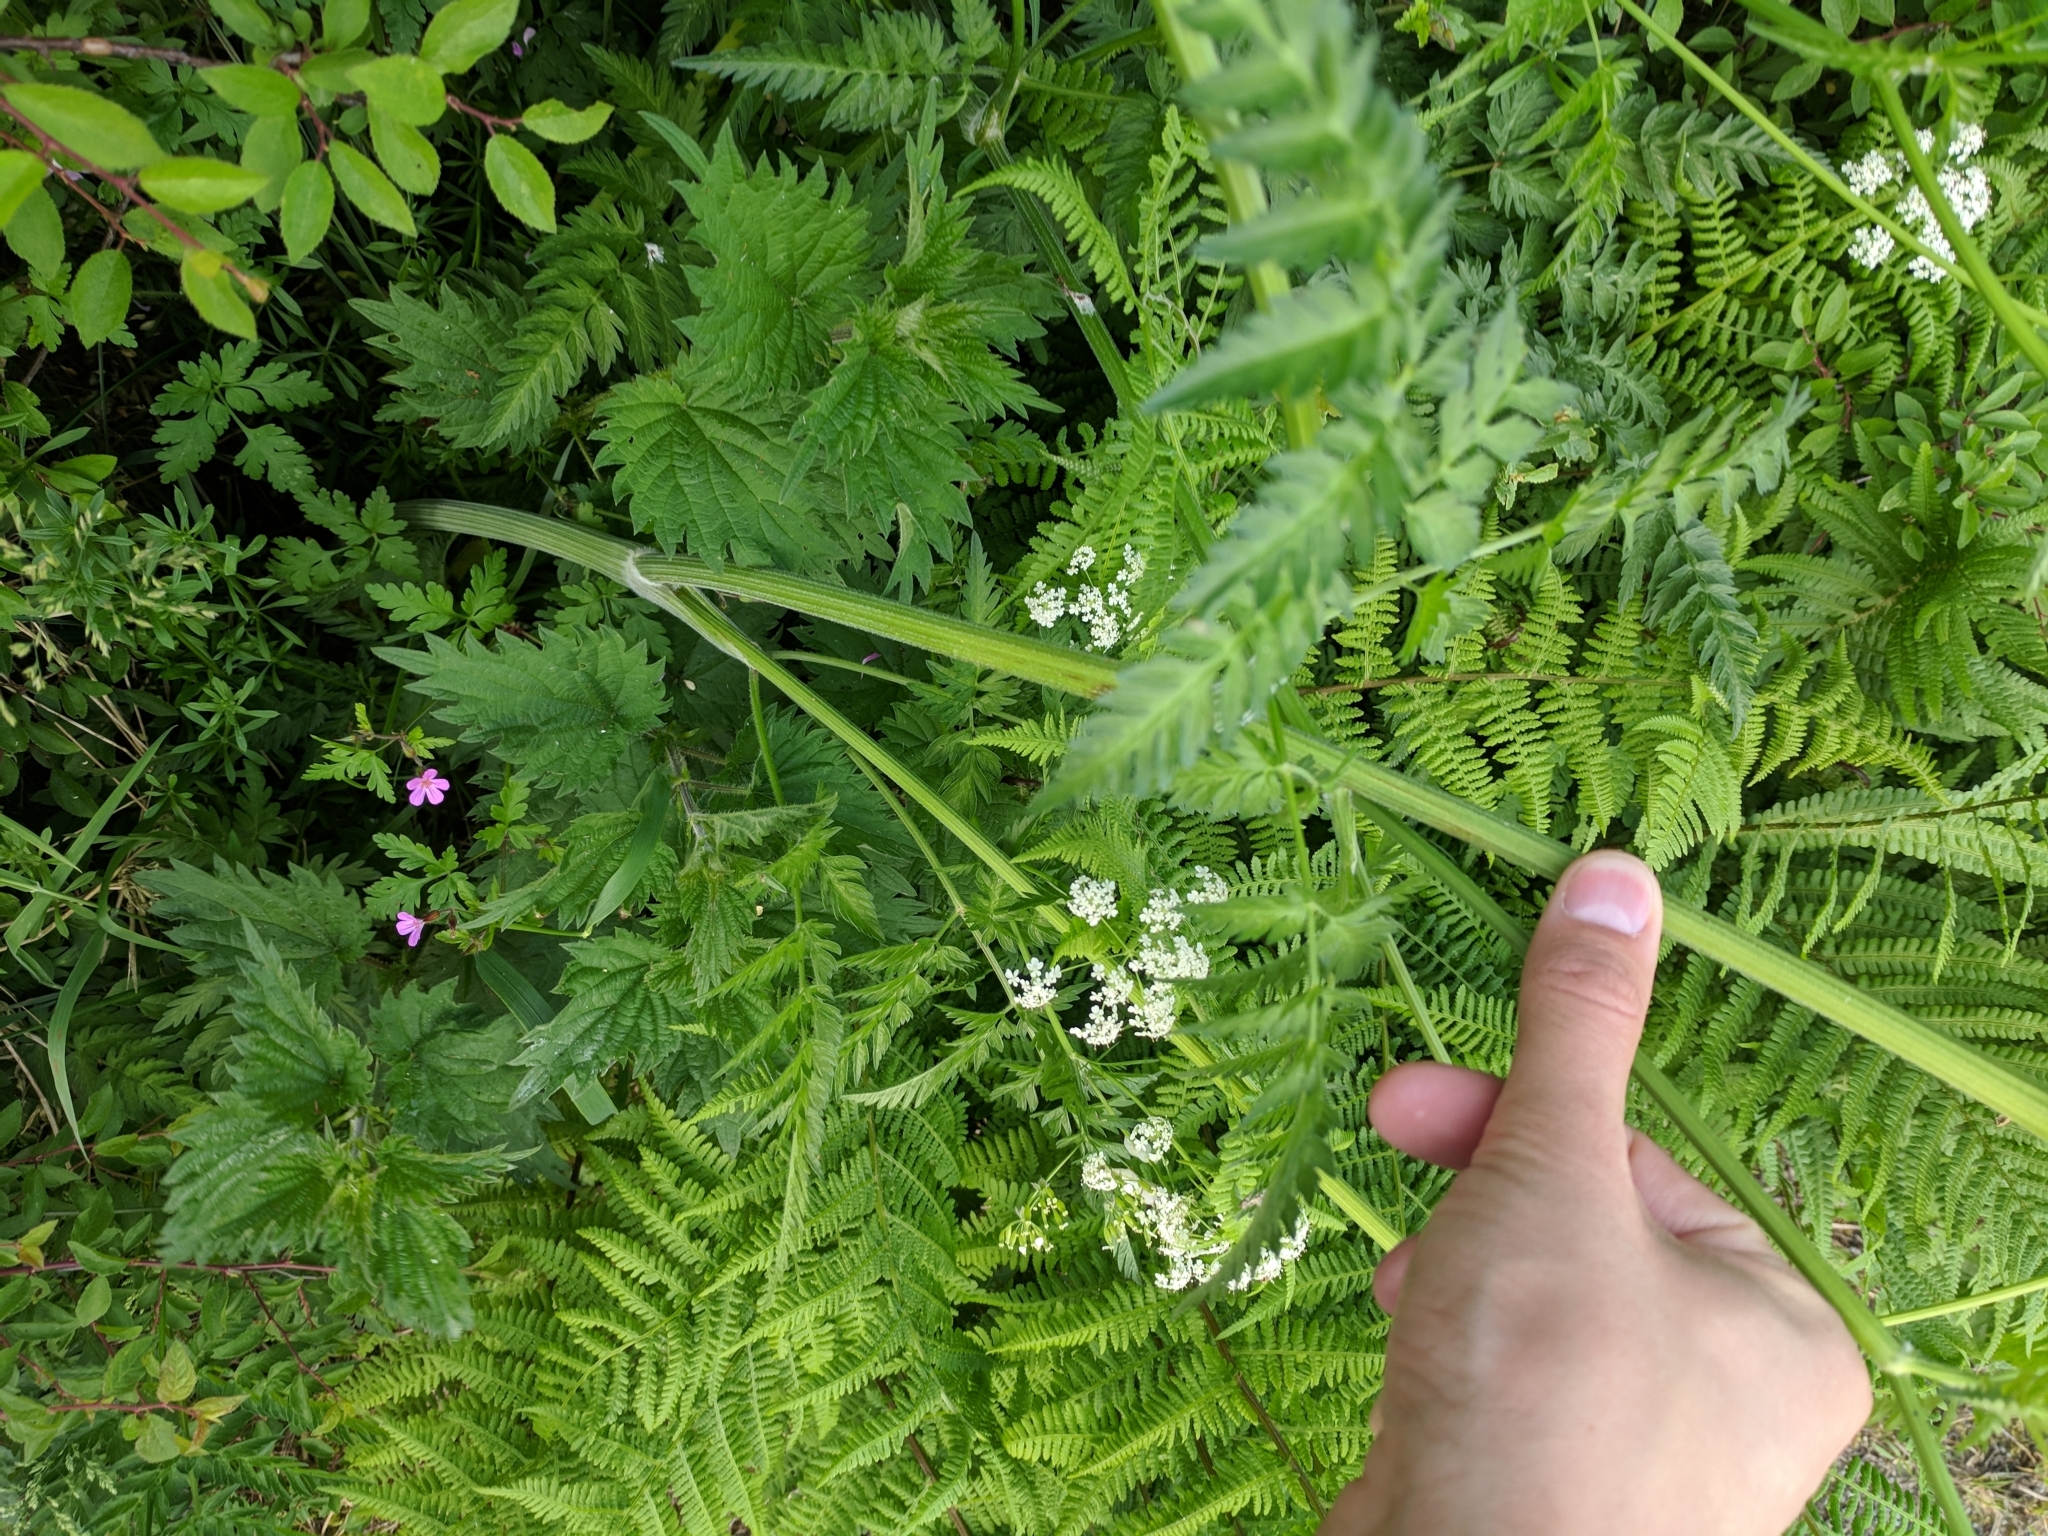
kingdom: Plantae
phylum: Tracheophyta
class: Magnoliopsida
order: Apiales
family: Apiaceae
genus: Anthriscus
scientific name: Anthriscus sylvestris
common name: Cow parsley
